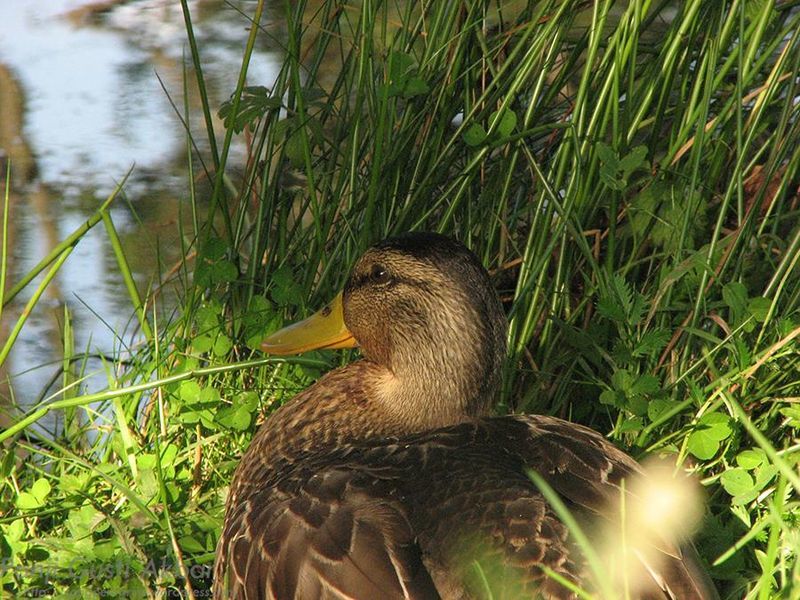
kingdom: Animalia
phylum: Chordata
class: Aves
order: Anseriformes
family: Anatidae
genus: Anas
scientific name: Anas platyrhynchos
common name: Mallard
